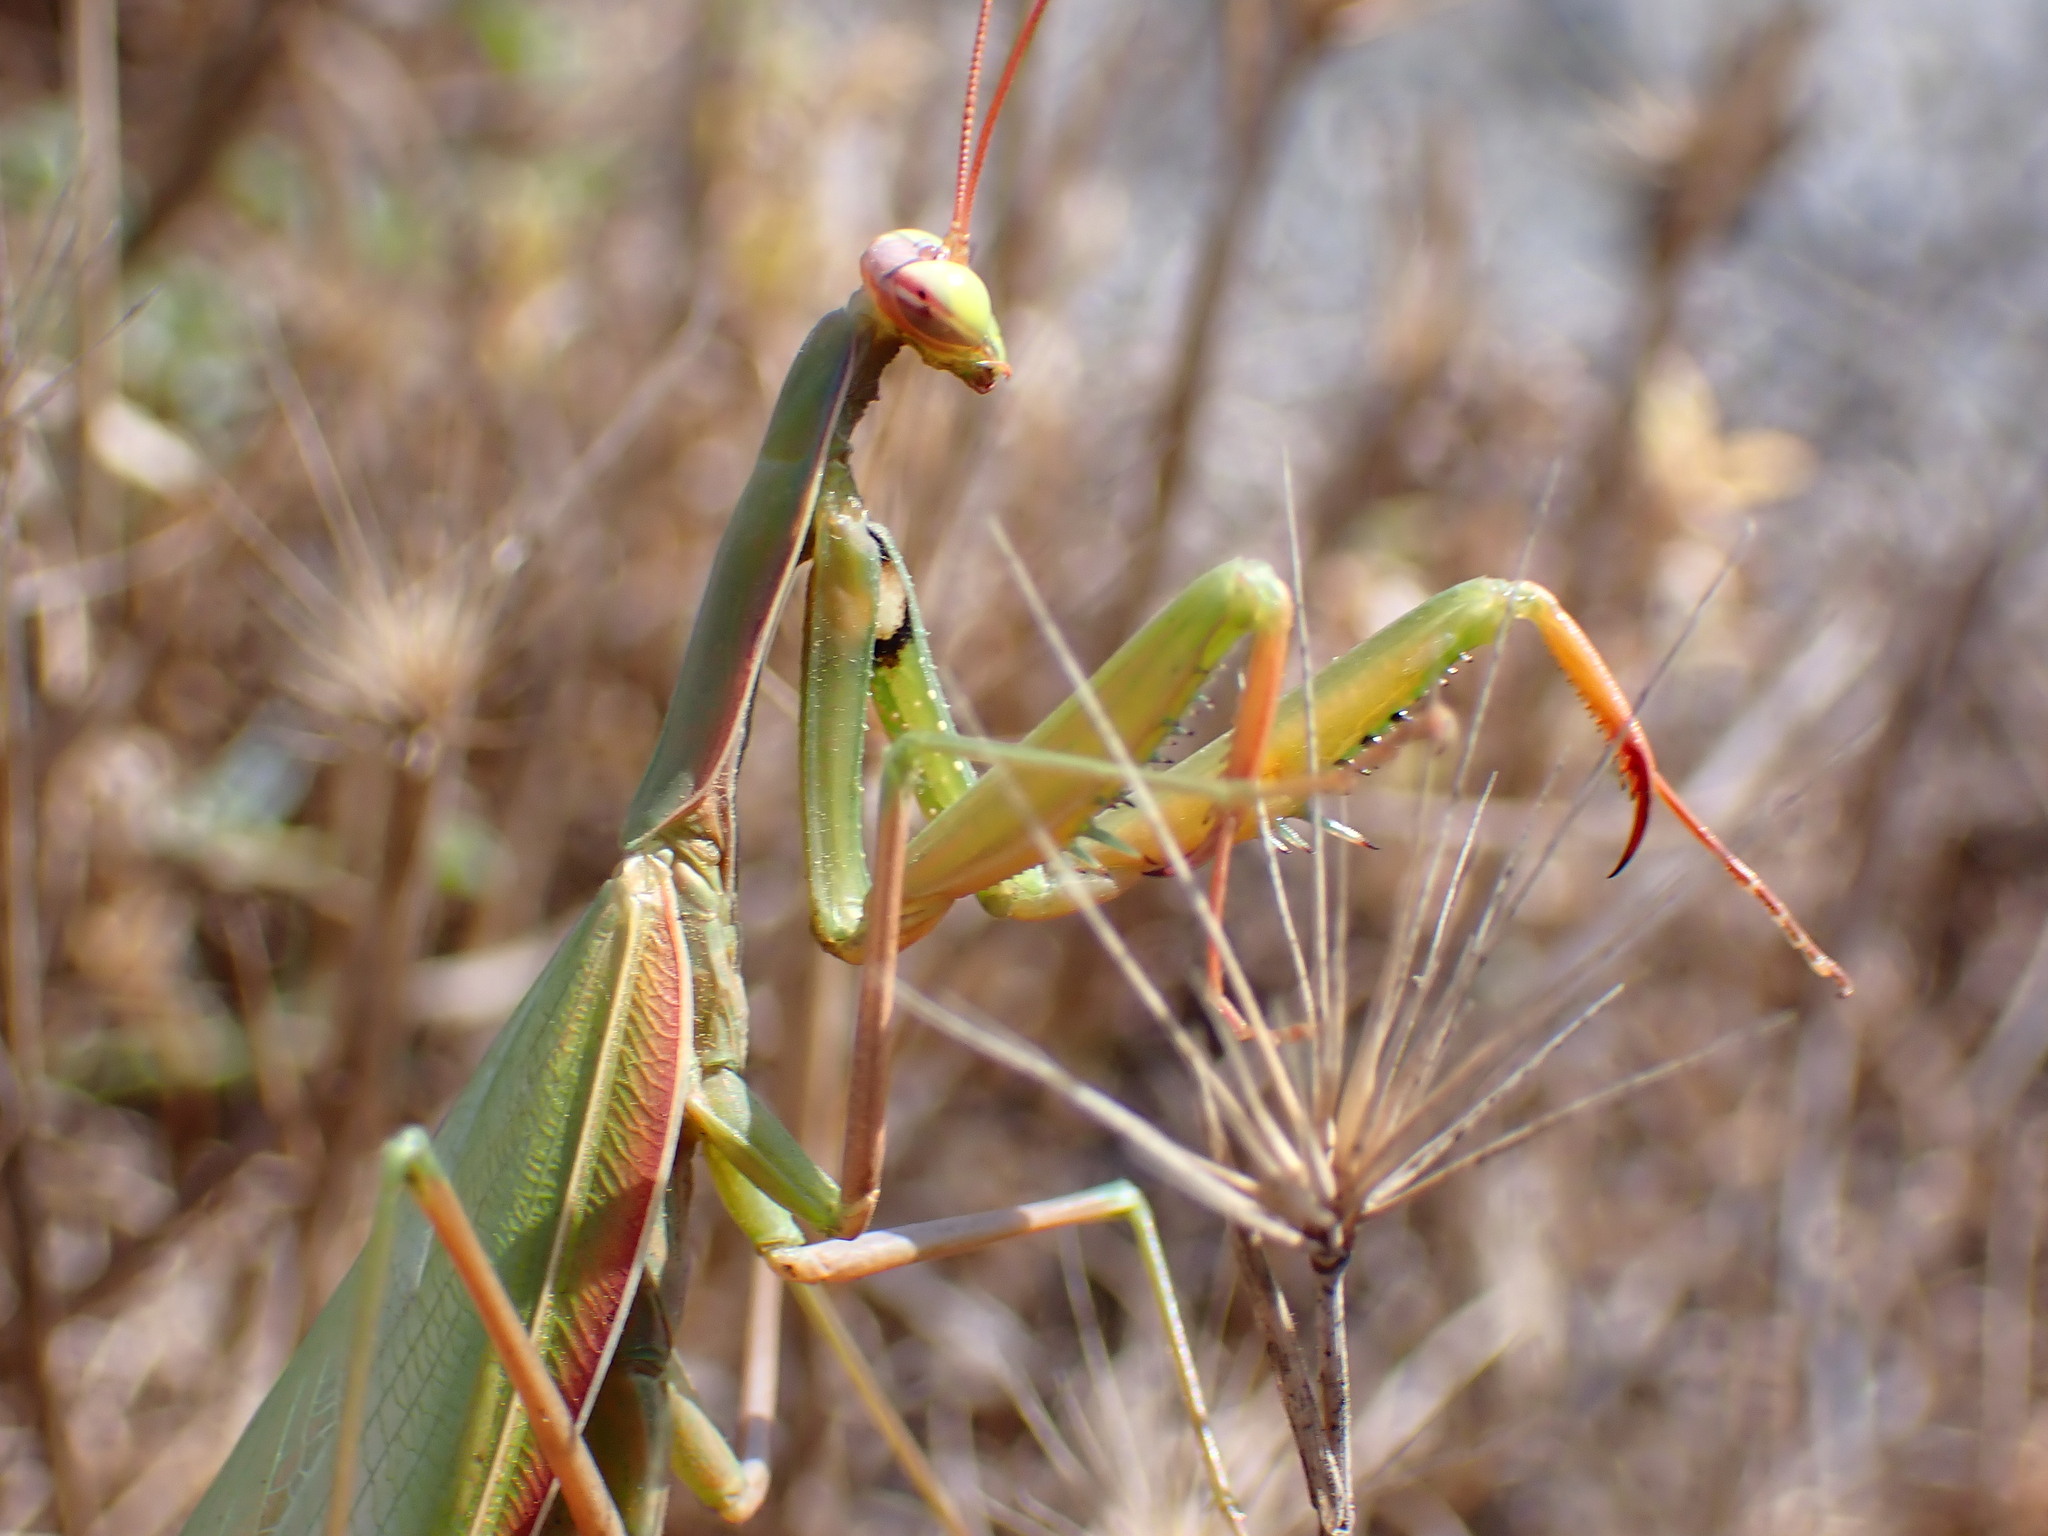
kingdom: Animalia
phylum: Arthropoda
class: Insecta
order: Mantodea
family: Mantidae
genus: Mantis
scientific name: Mantis religiosa
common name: Praying mantis
